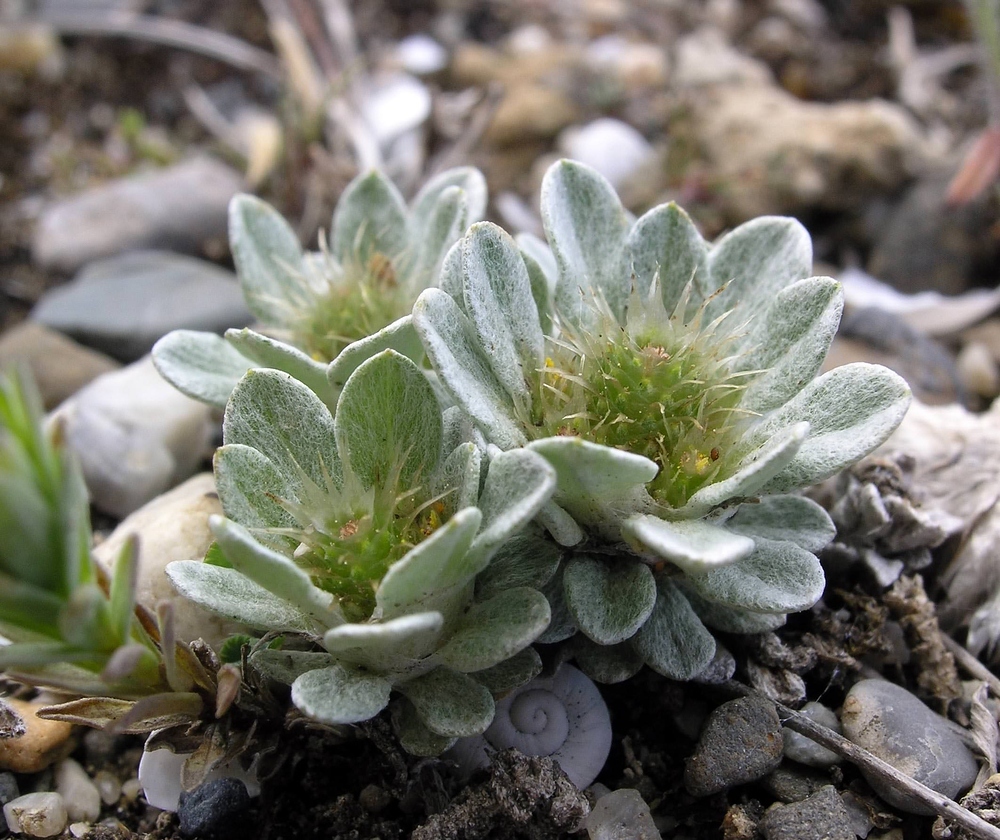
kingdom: Plantae
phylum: Tracheophyta
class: Magnoliopsida
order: Asterales
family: Asteraceae
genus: Filago
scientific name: Filago pygmaea
